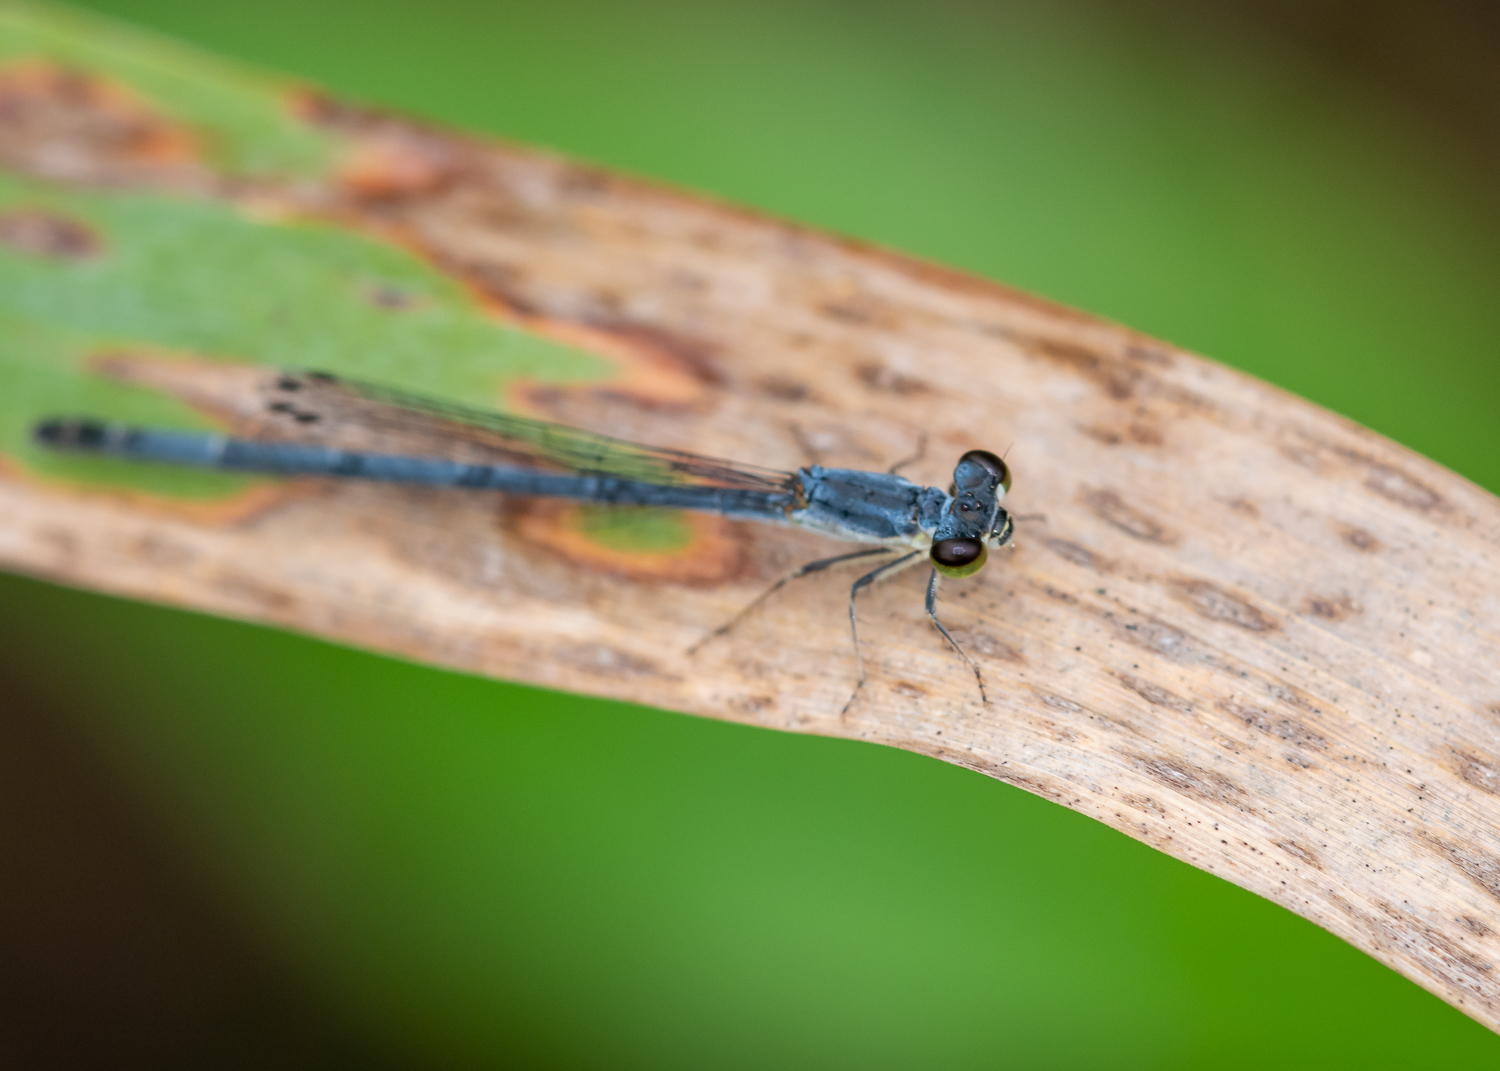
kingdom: Animalia
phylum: Arthropoda
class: Insecta
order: Odonata
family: Coenagrionidae
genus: Ischnura
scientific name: Ischnura posita
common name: Fragile forktail
